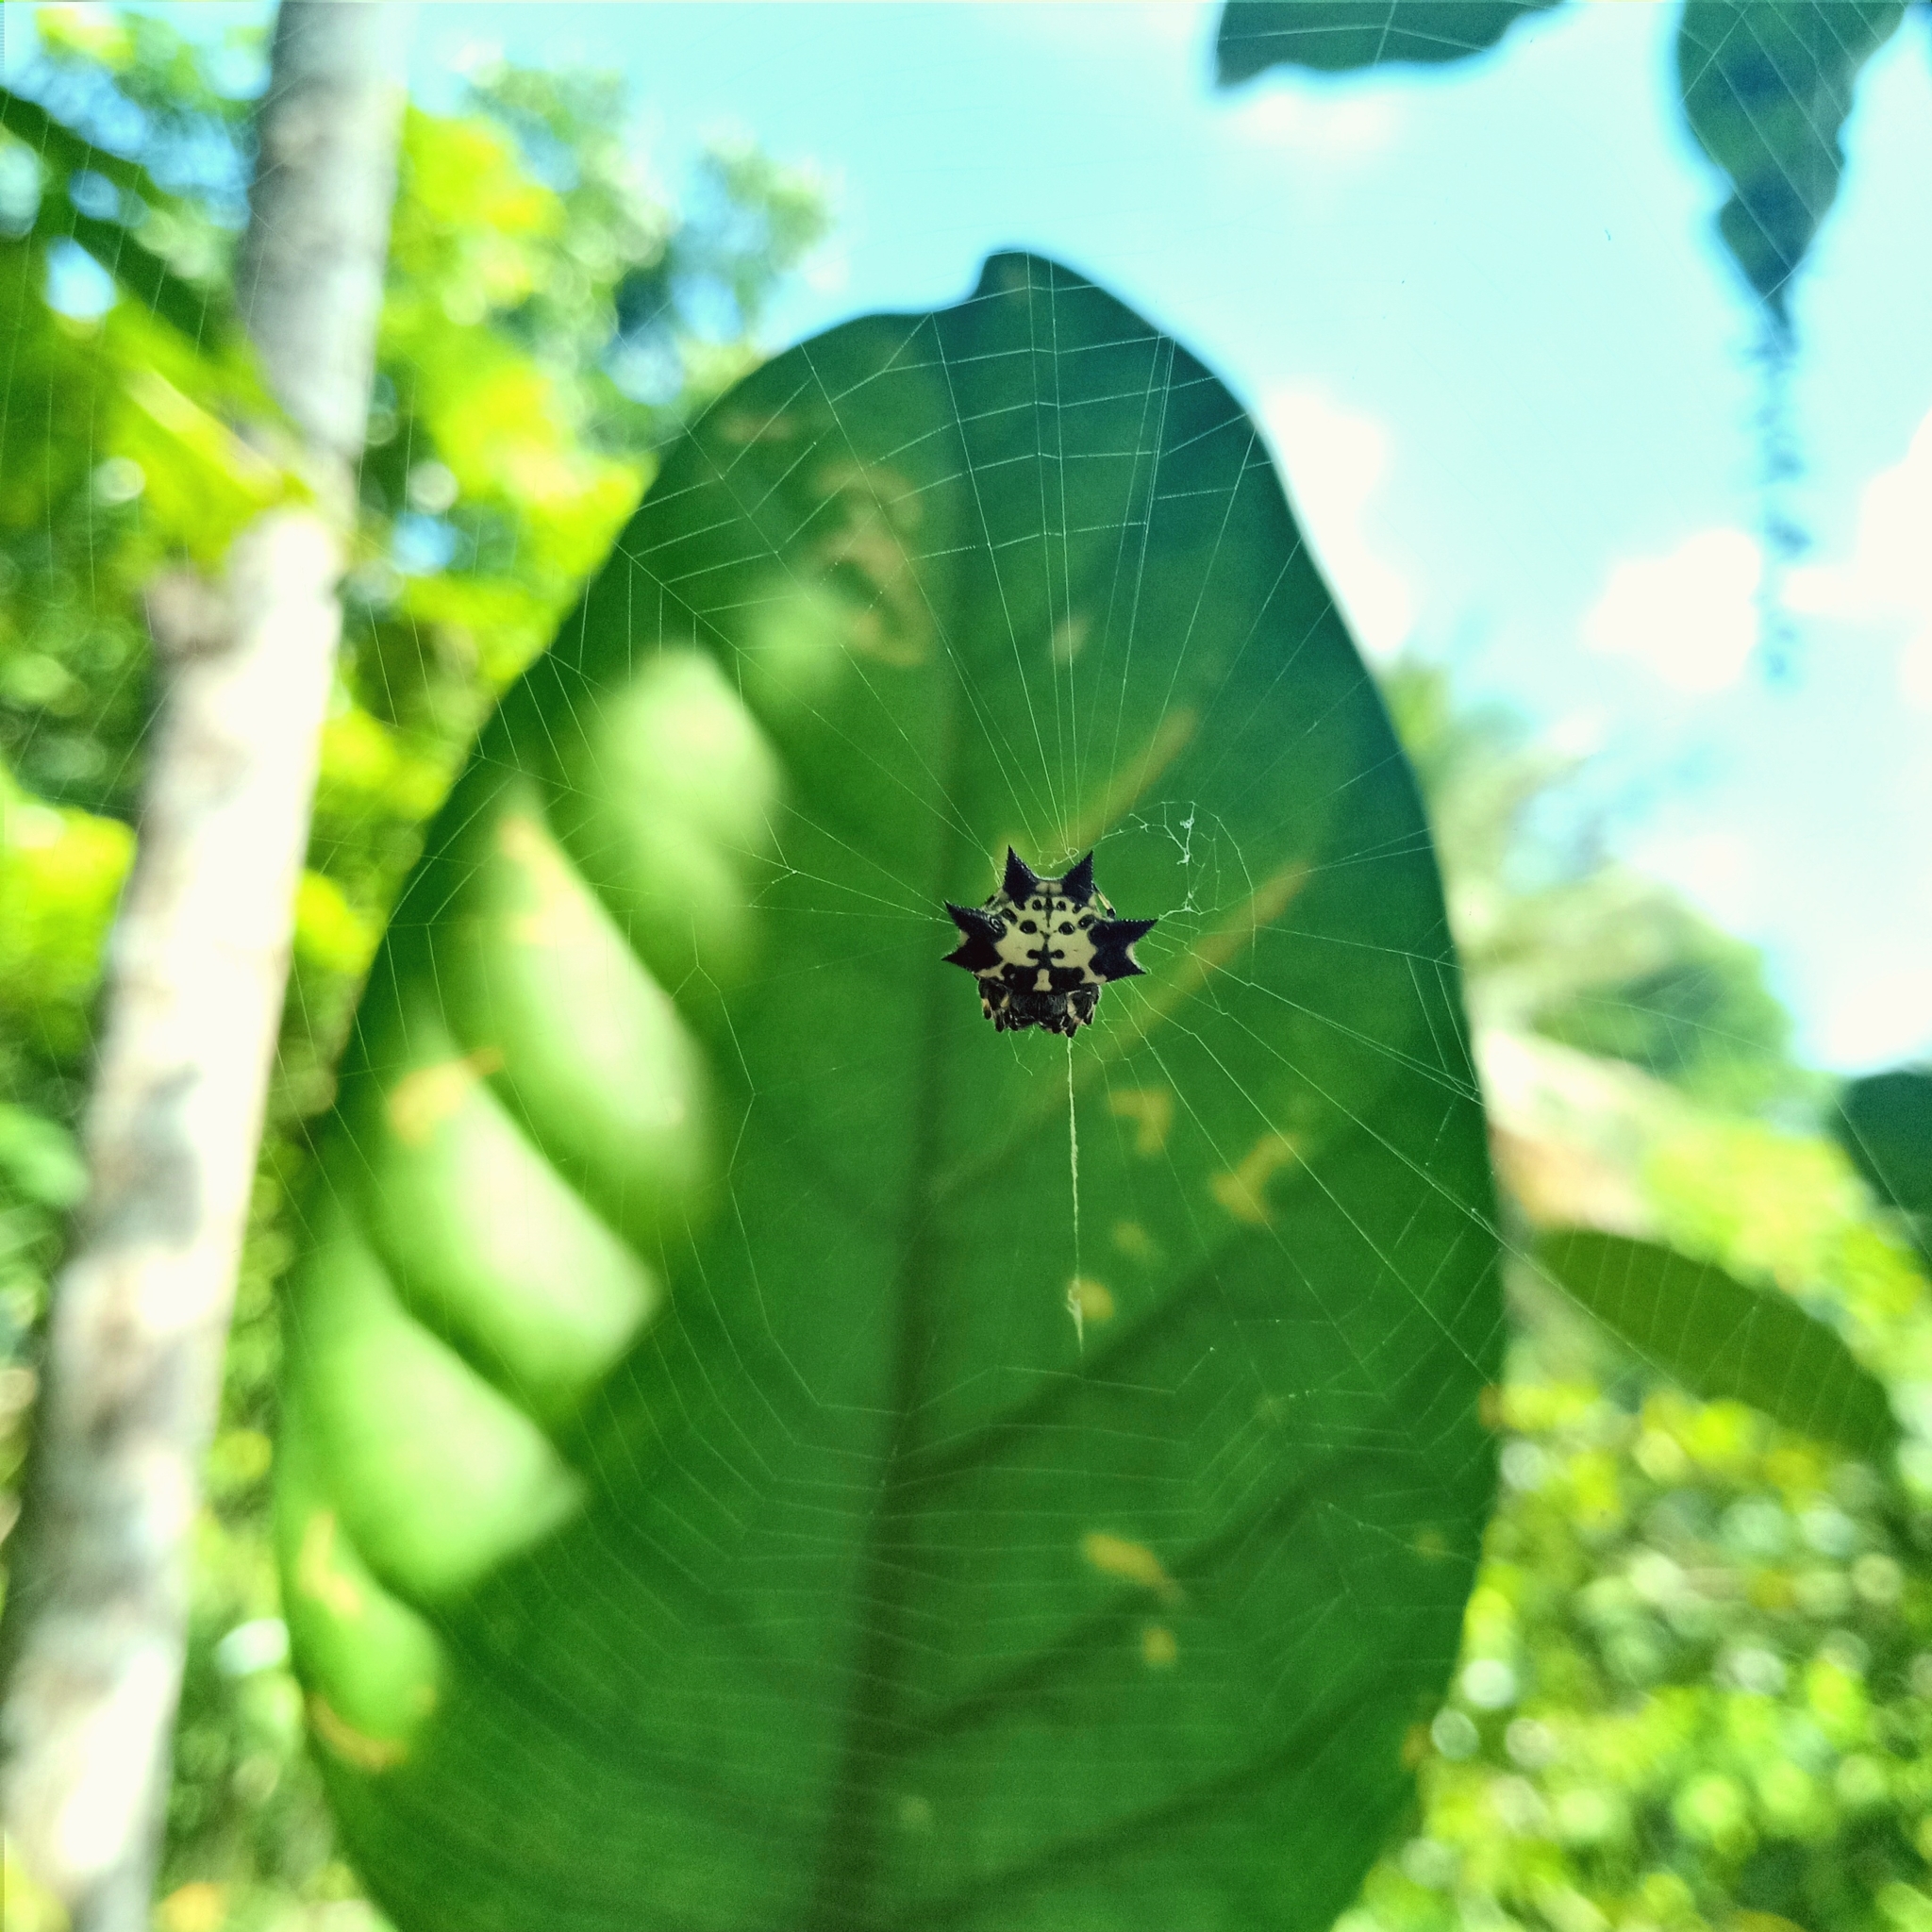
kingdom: Animalia
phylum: Arthropoda
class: Arachnida
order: Araneae
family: Araneidae
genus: Gasteracantha
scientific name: Gasteracantha kuhli
